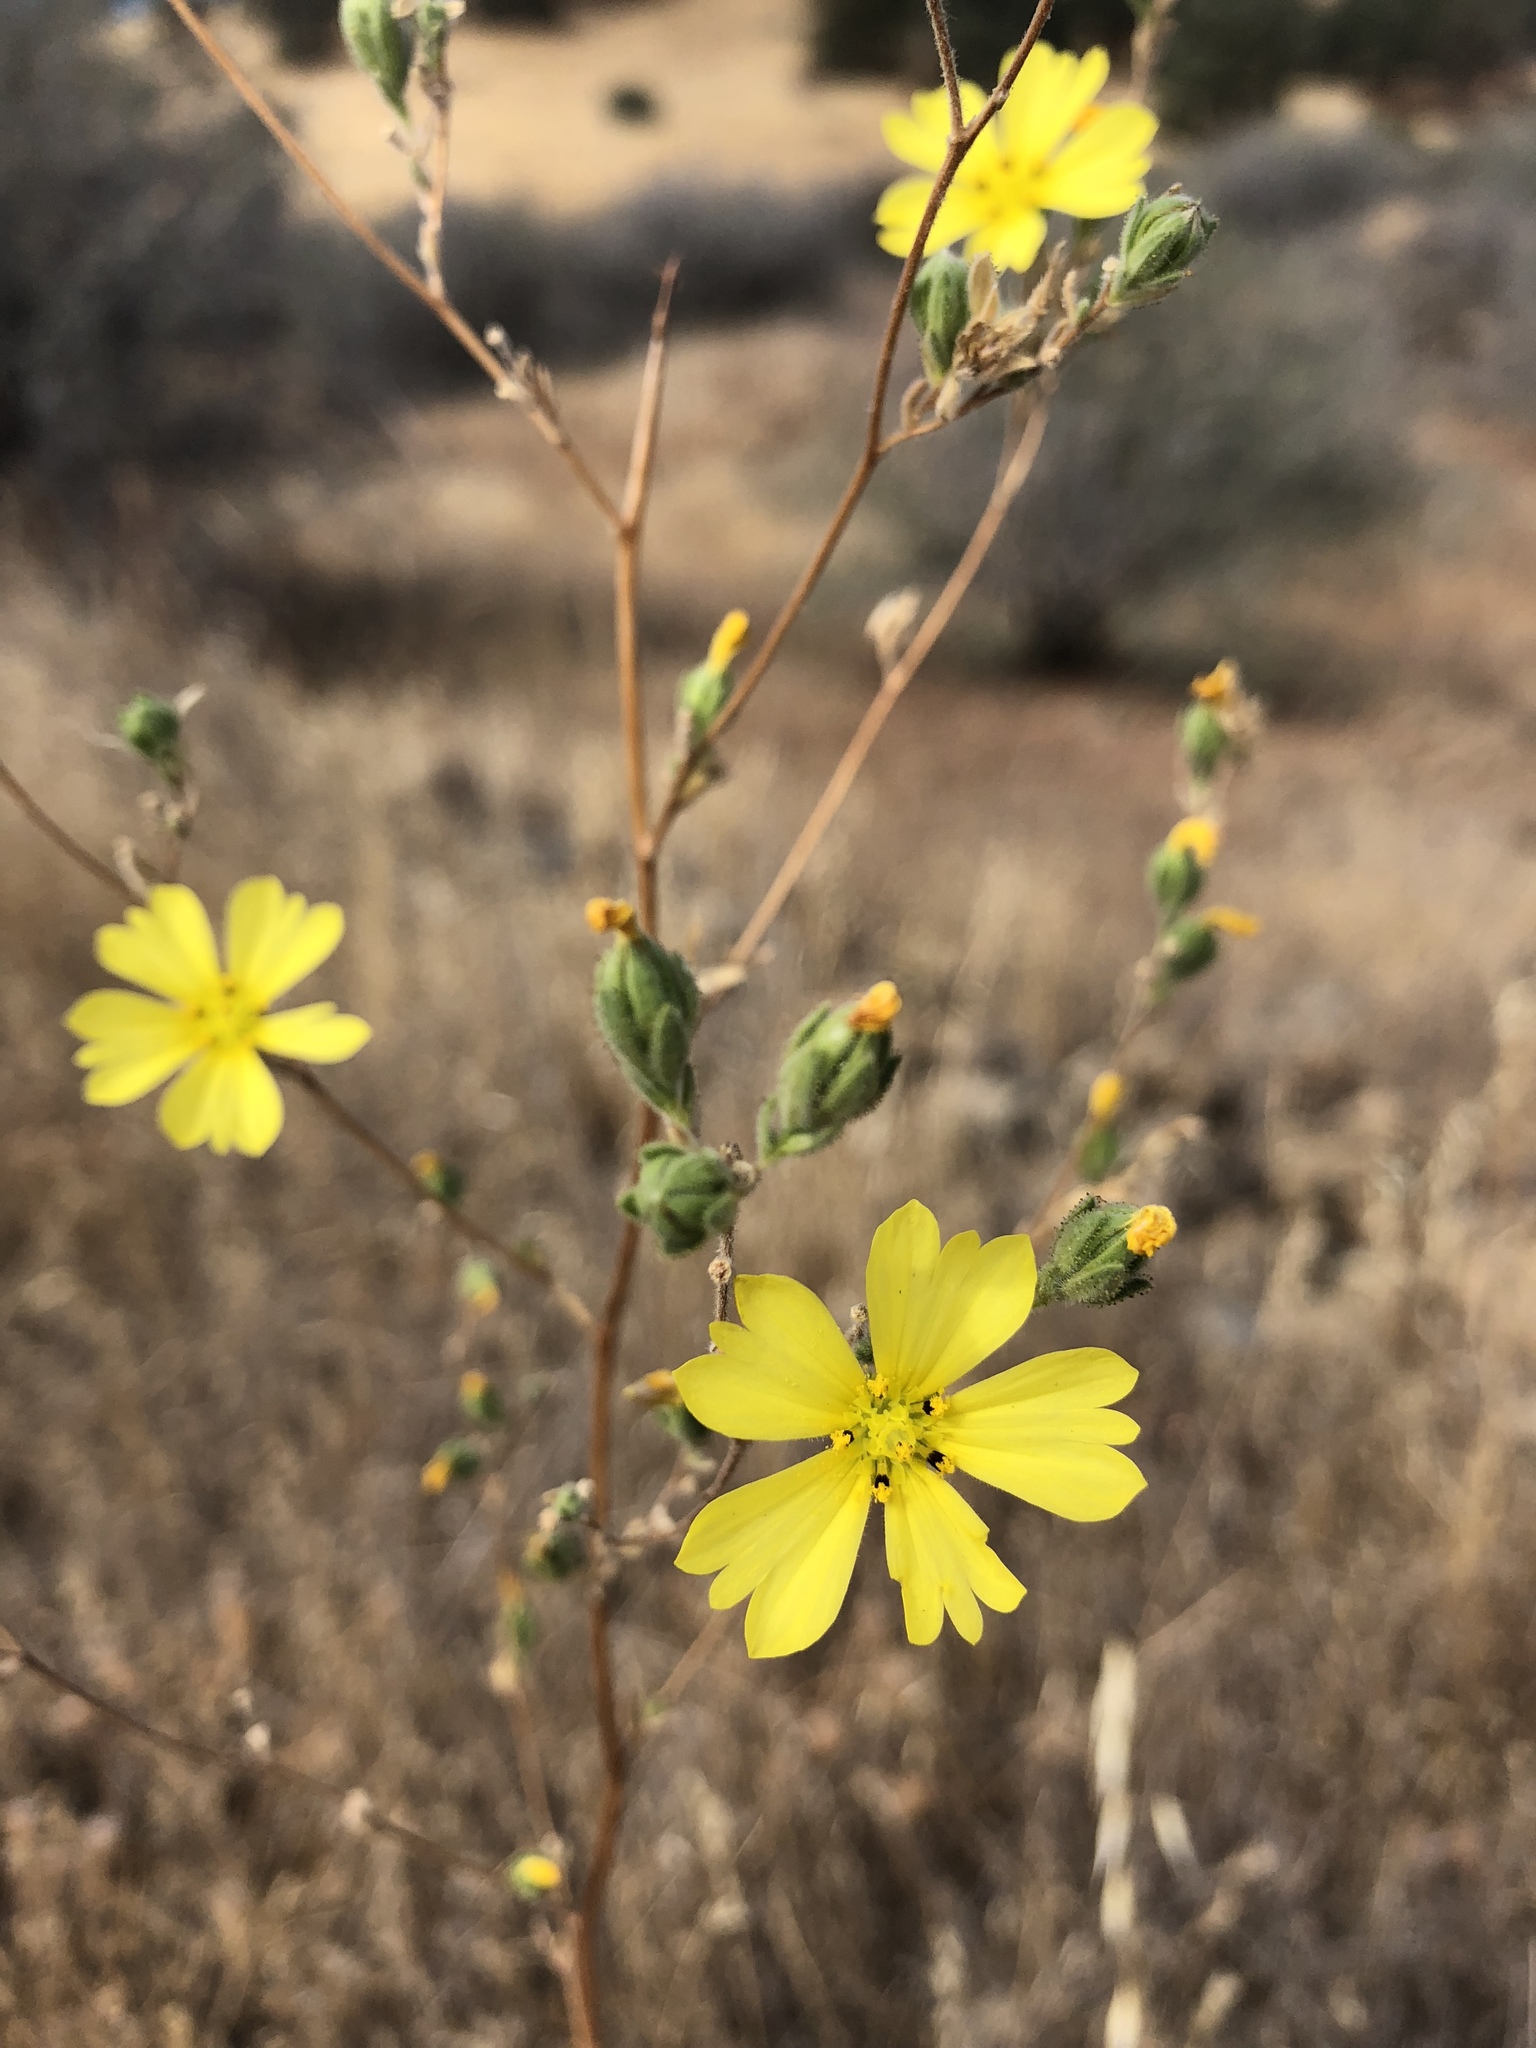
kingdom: Plantae
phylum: Tracheophyta
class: Magnoliopsida
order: Asterales
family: Asteraceae
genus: Lagophylla
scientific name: Lagophylla glandulosa
